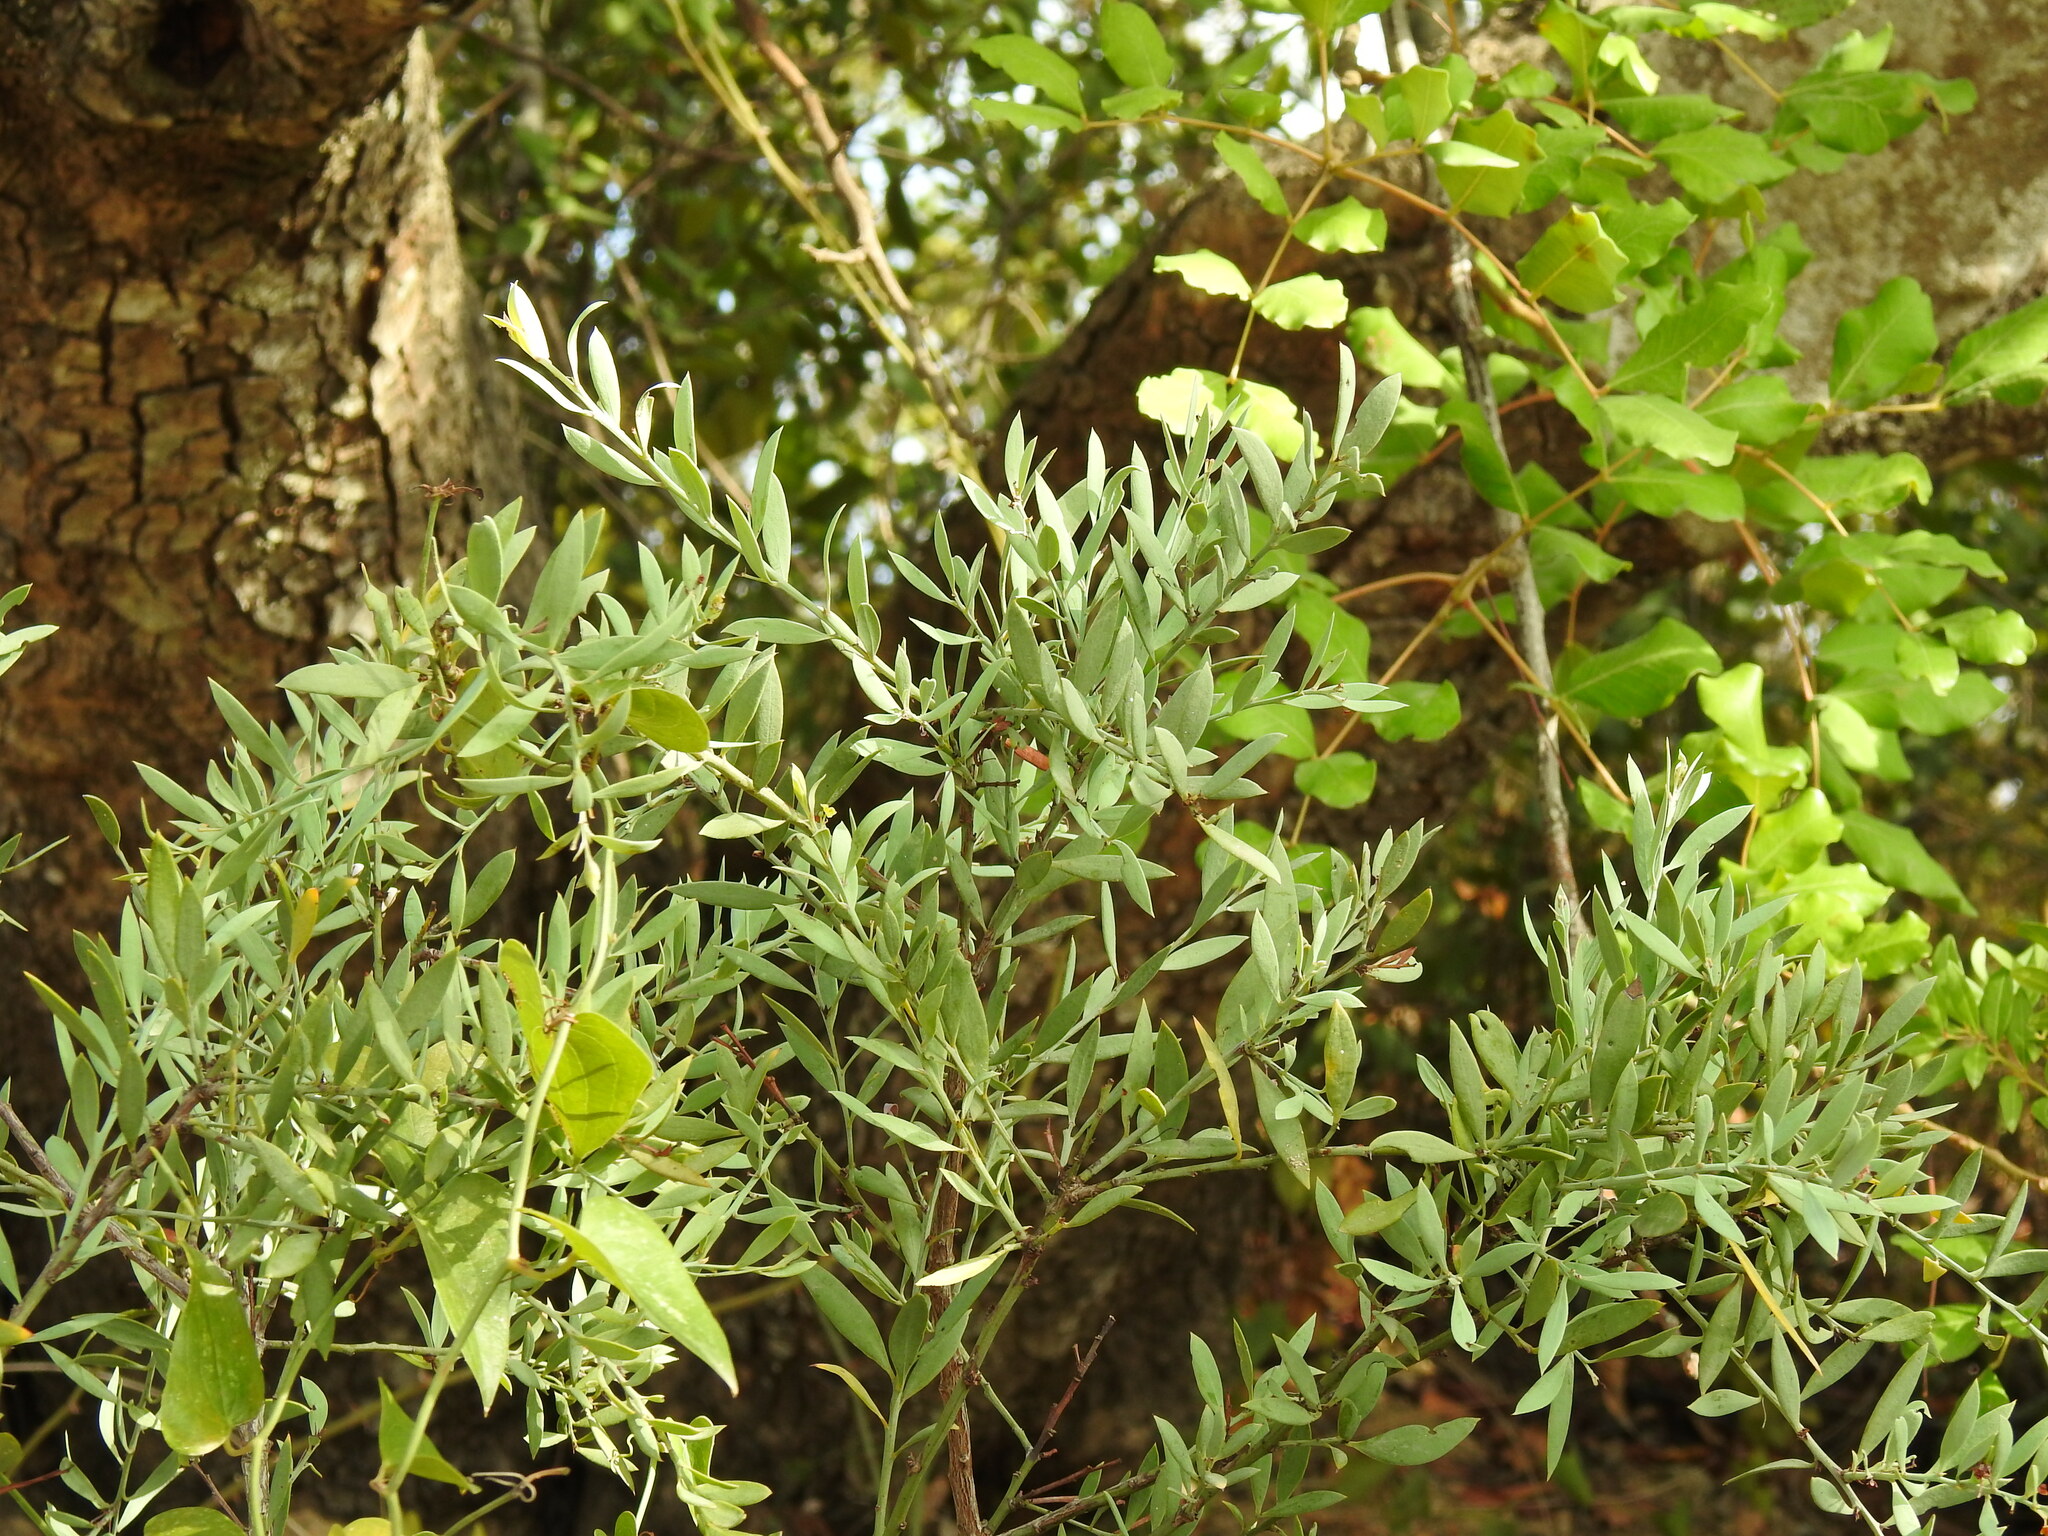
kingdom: Plantae
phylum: Tracheophyta
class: Magnoliopsida
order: Santalales
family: Santalaceae
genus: Osyris
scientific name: Osyris lanceolata
